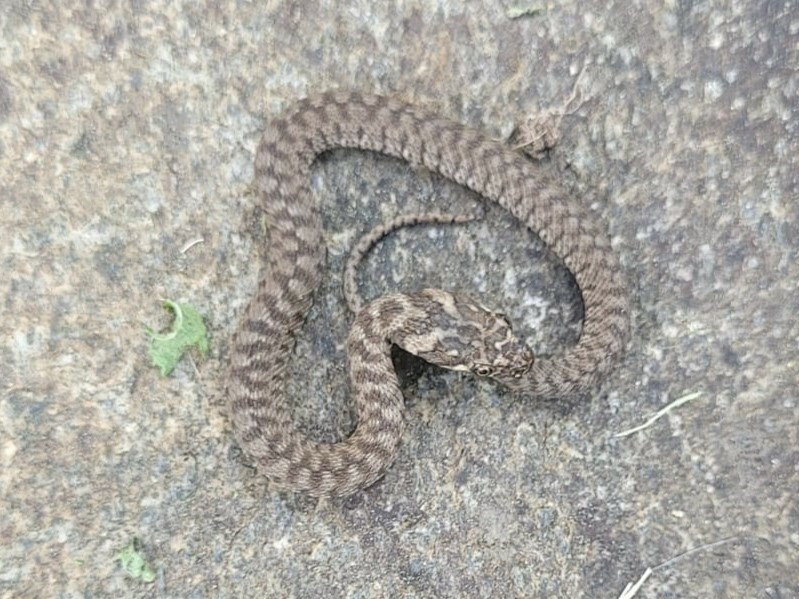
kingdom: Animalia
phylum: Chordata
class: Squamata
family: Colubridae
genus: Natrix
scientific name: Natrix maura
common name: Viperine water snake
